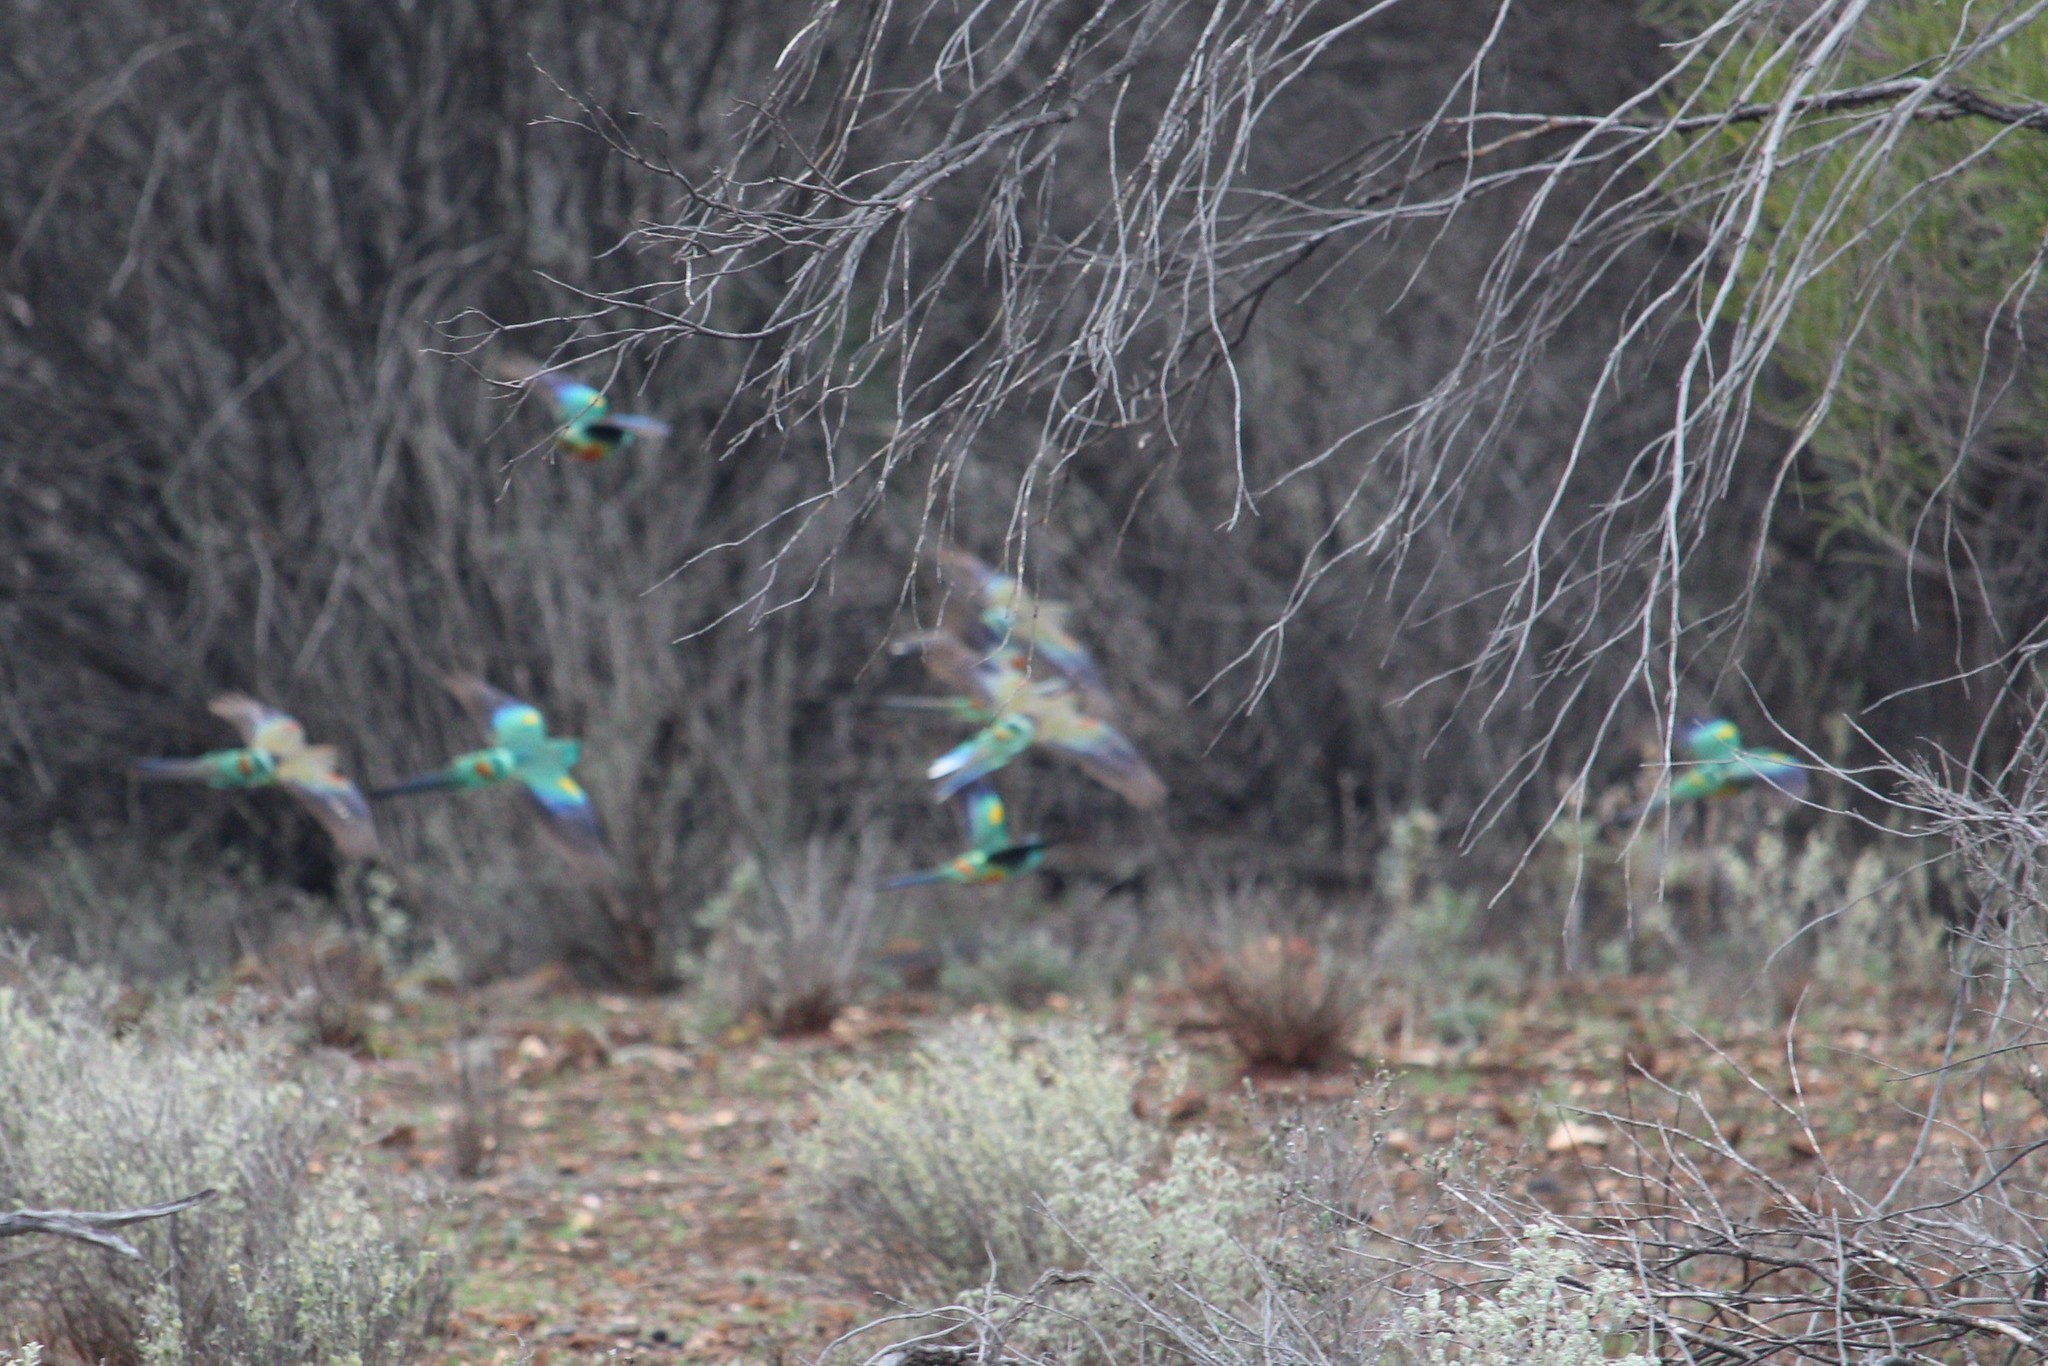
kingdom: Animalia
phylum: Chordata
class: Aves
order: Psittaciformes
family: Psittaculidae
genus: Psephotellus
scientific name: Psephotellus varius
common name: Mulga parrot
